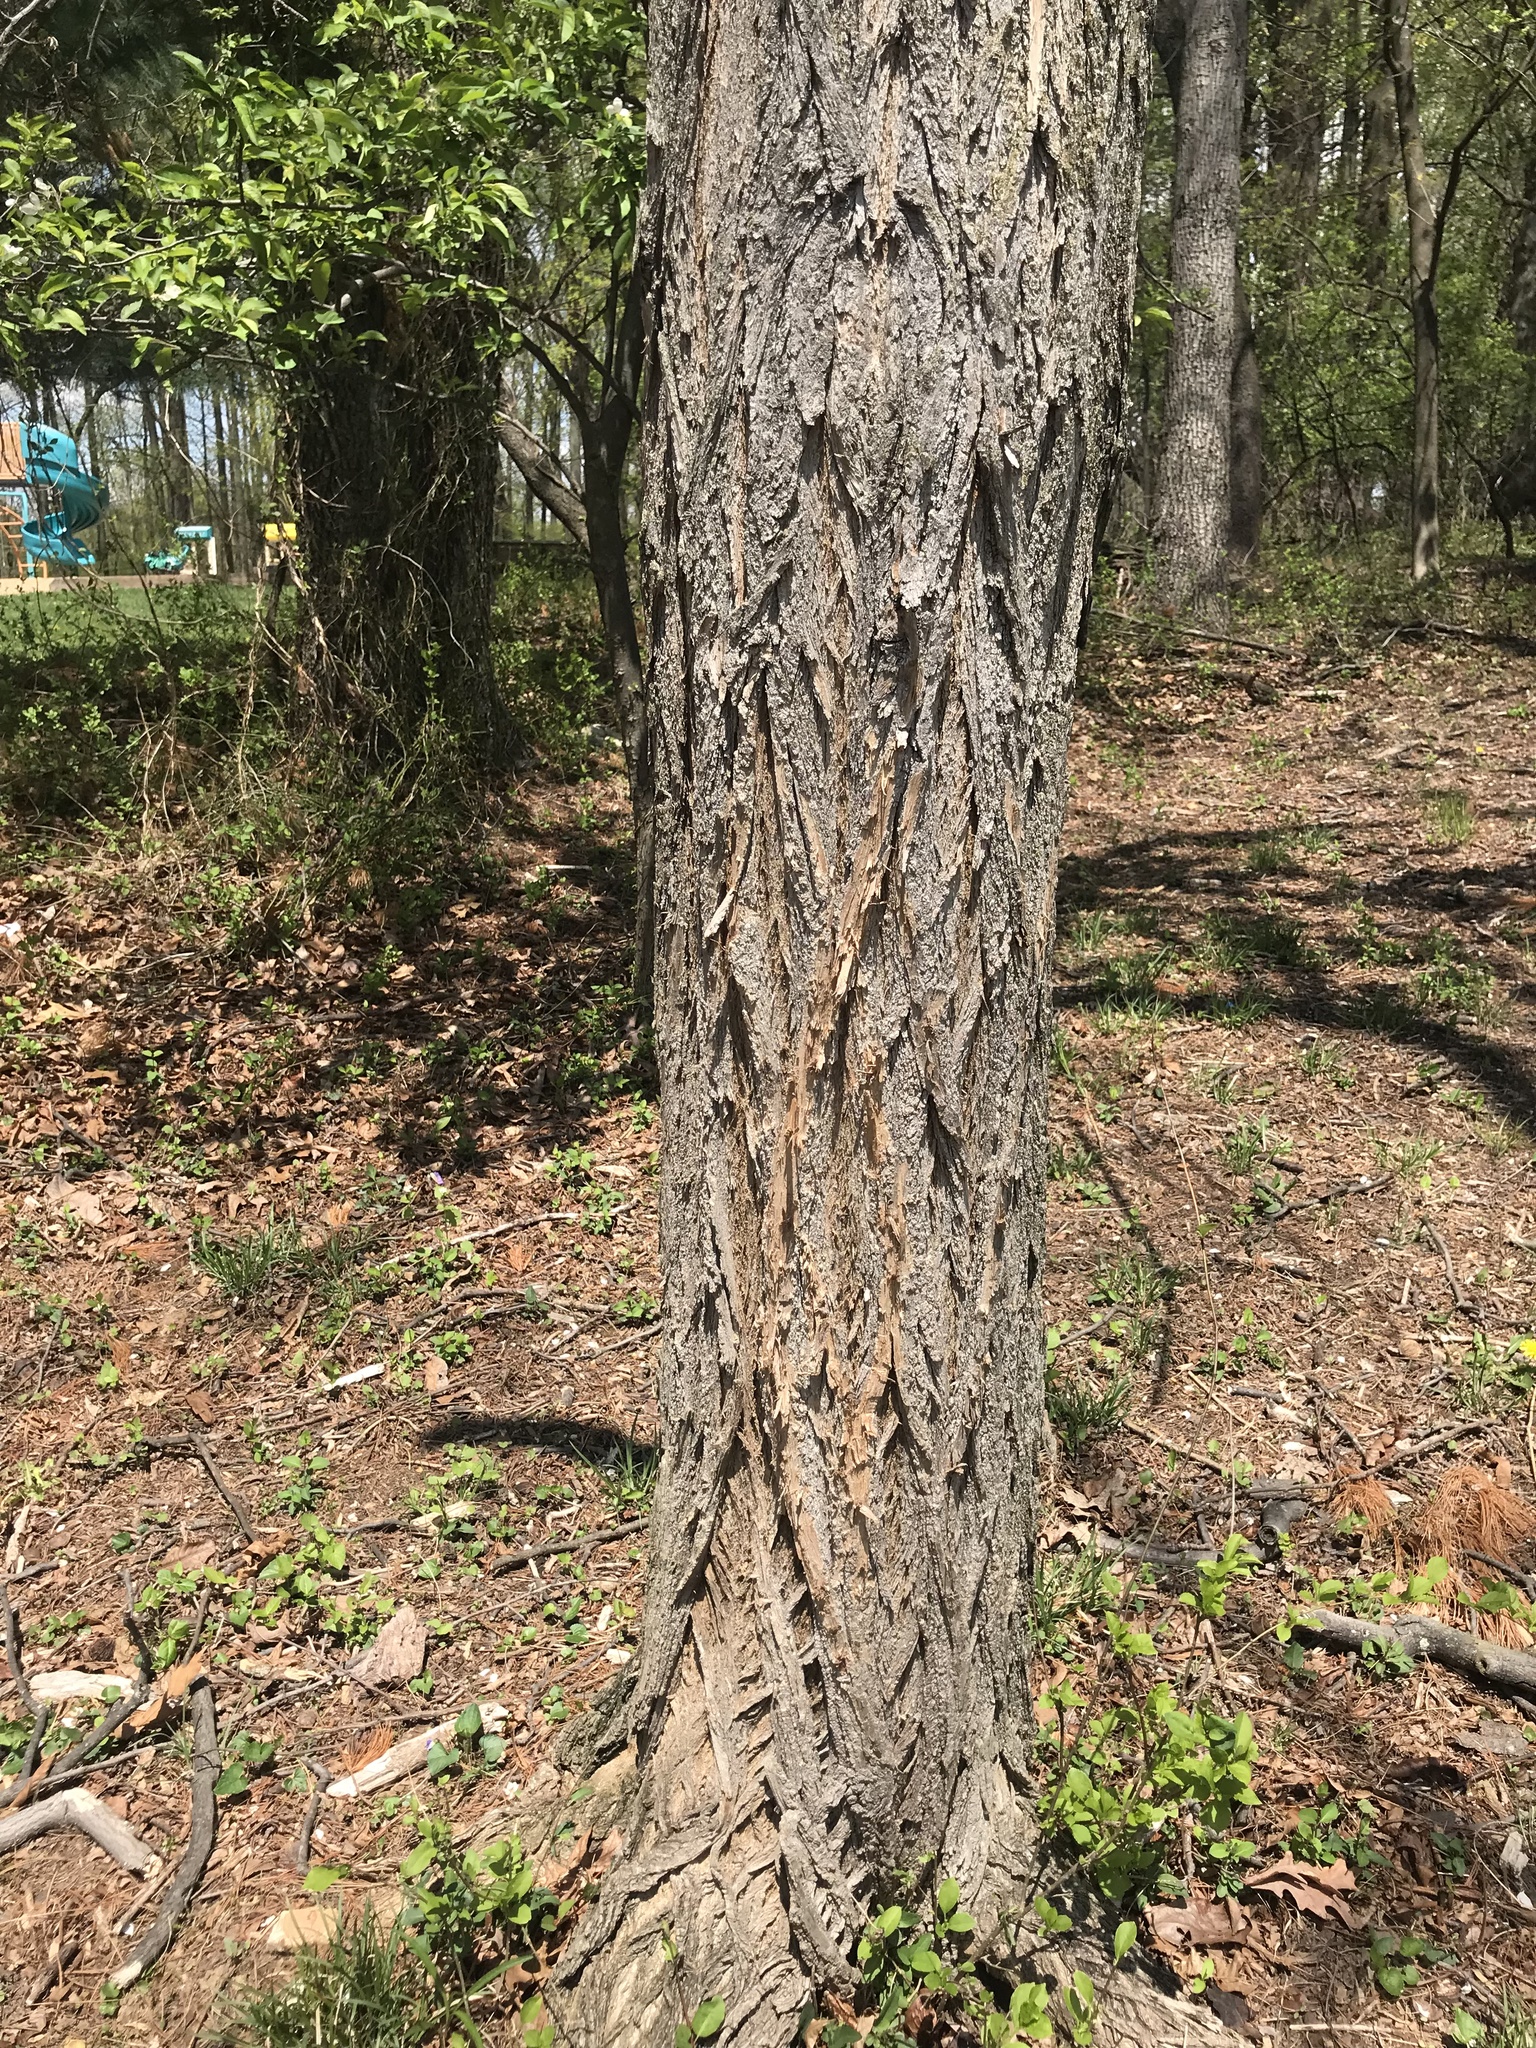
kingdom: Plantae
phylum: Tracheophyta
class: Magnoliopsida
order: Fabales
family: Fabaceae
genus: Robinia
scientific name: Robinia pseudoacacia
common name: Black locust
